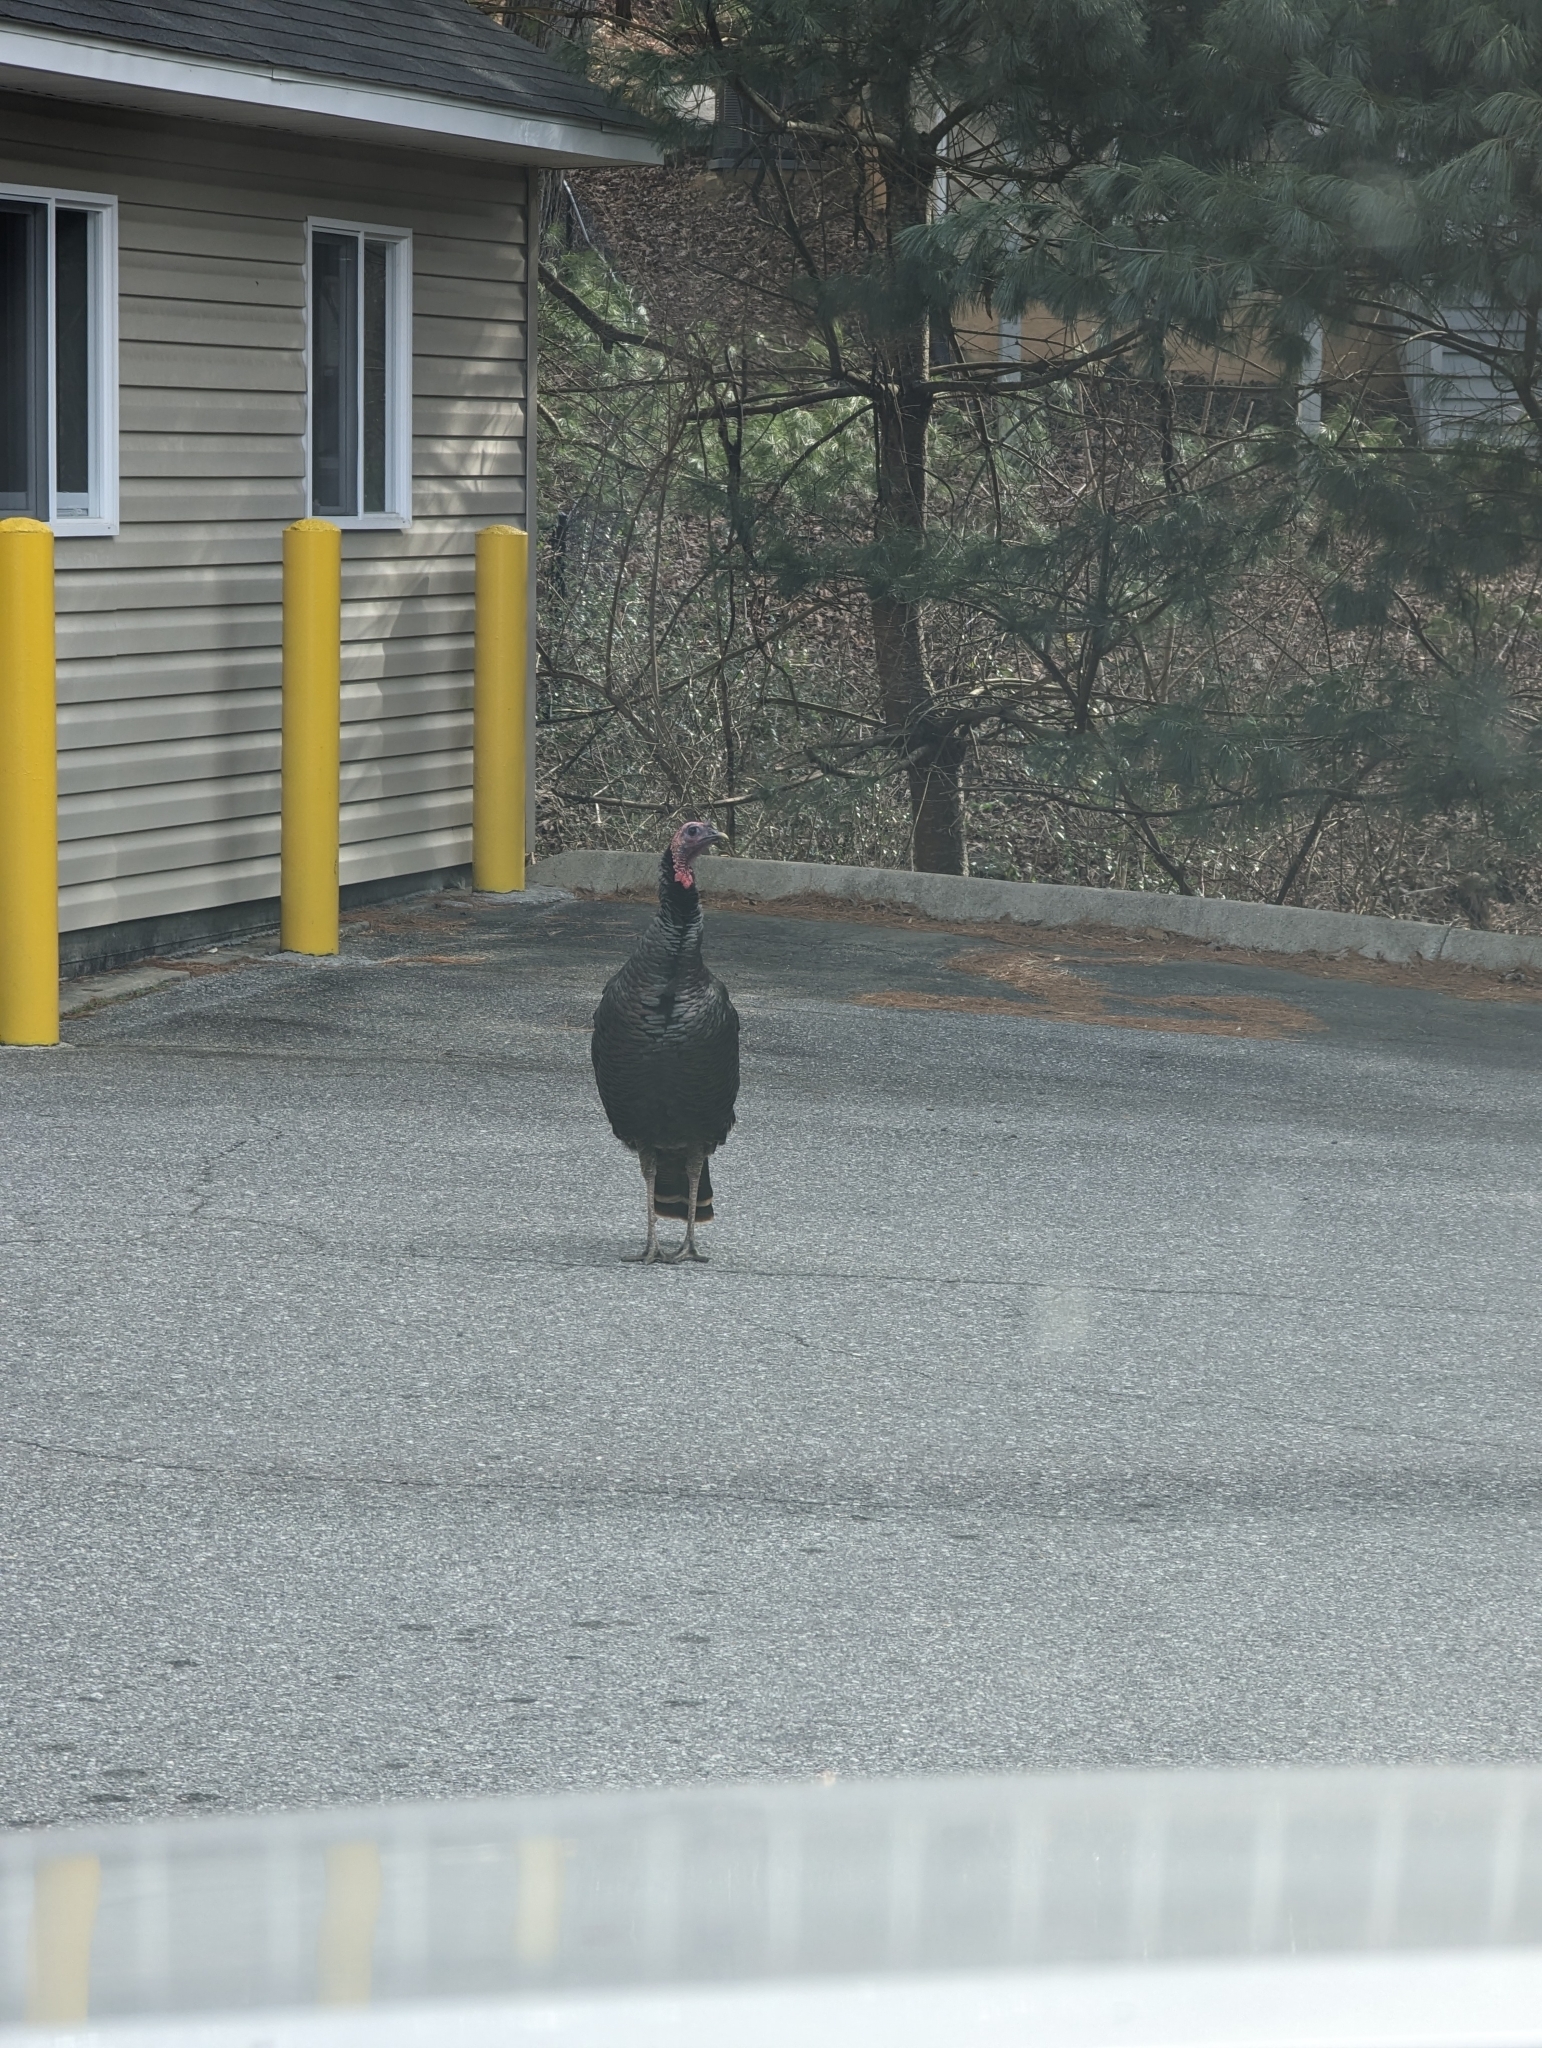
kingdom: Animalia
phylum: Chordata
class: Aves
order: Galliformes
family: Phasianidae
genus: Meleagris
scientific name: Meleagris gallopavo
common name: Wild turkey
